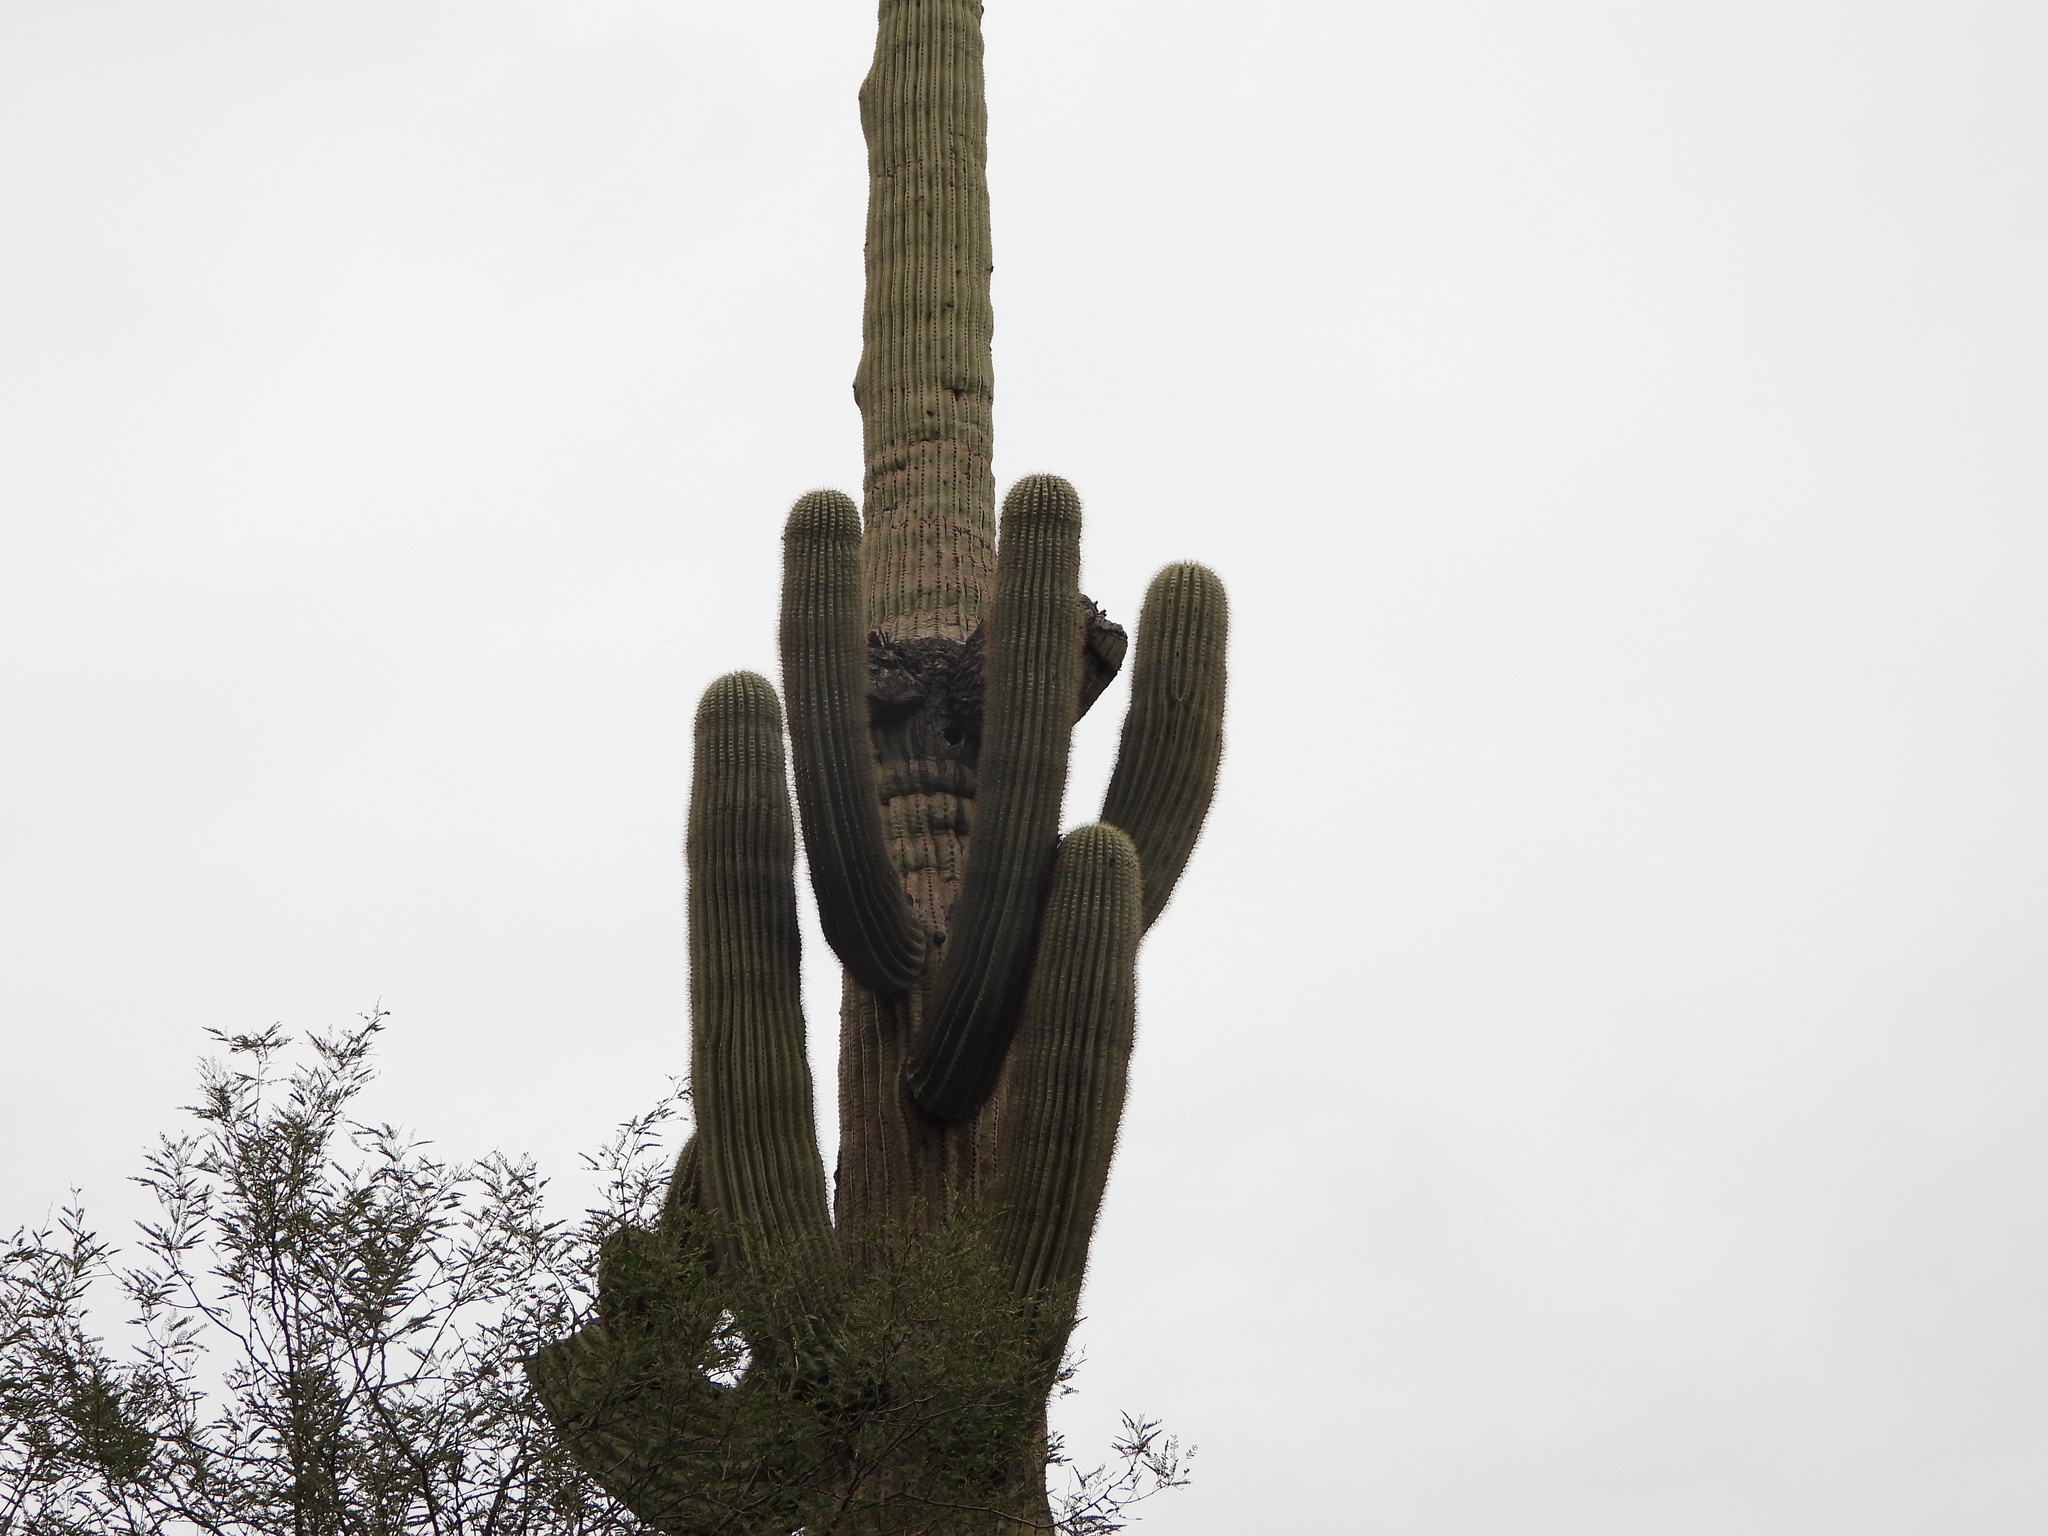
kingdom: Plantae
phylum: Tracheophyta
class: Magnoliopsida
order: Caryophyllales
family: Cactaceae
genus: Carnegiea
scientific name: Carnegiea gigantea
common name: Saguaro
